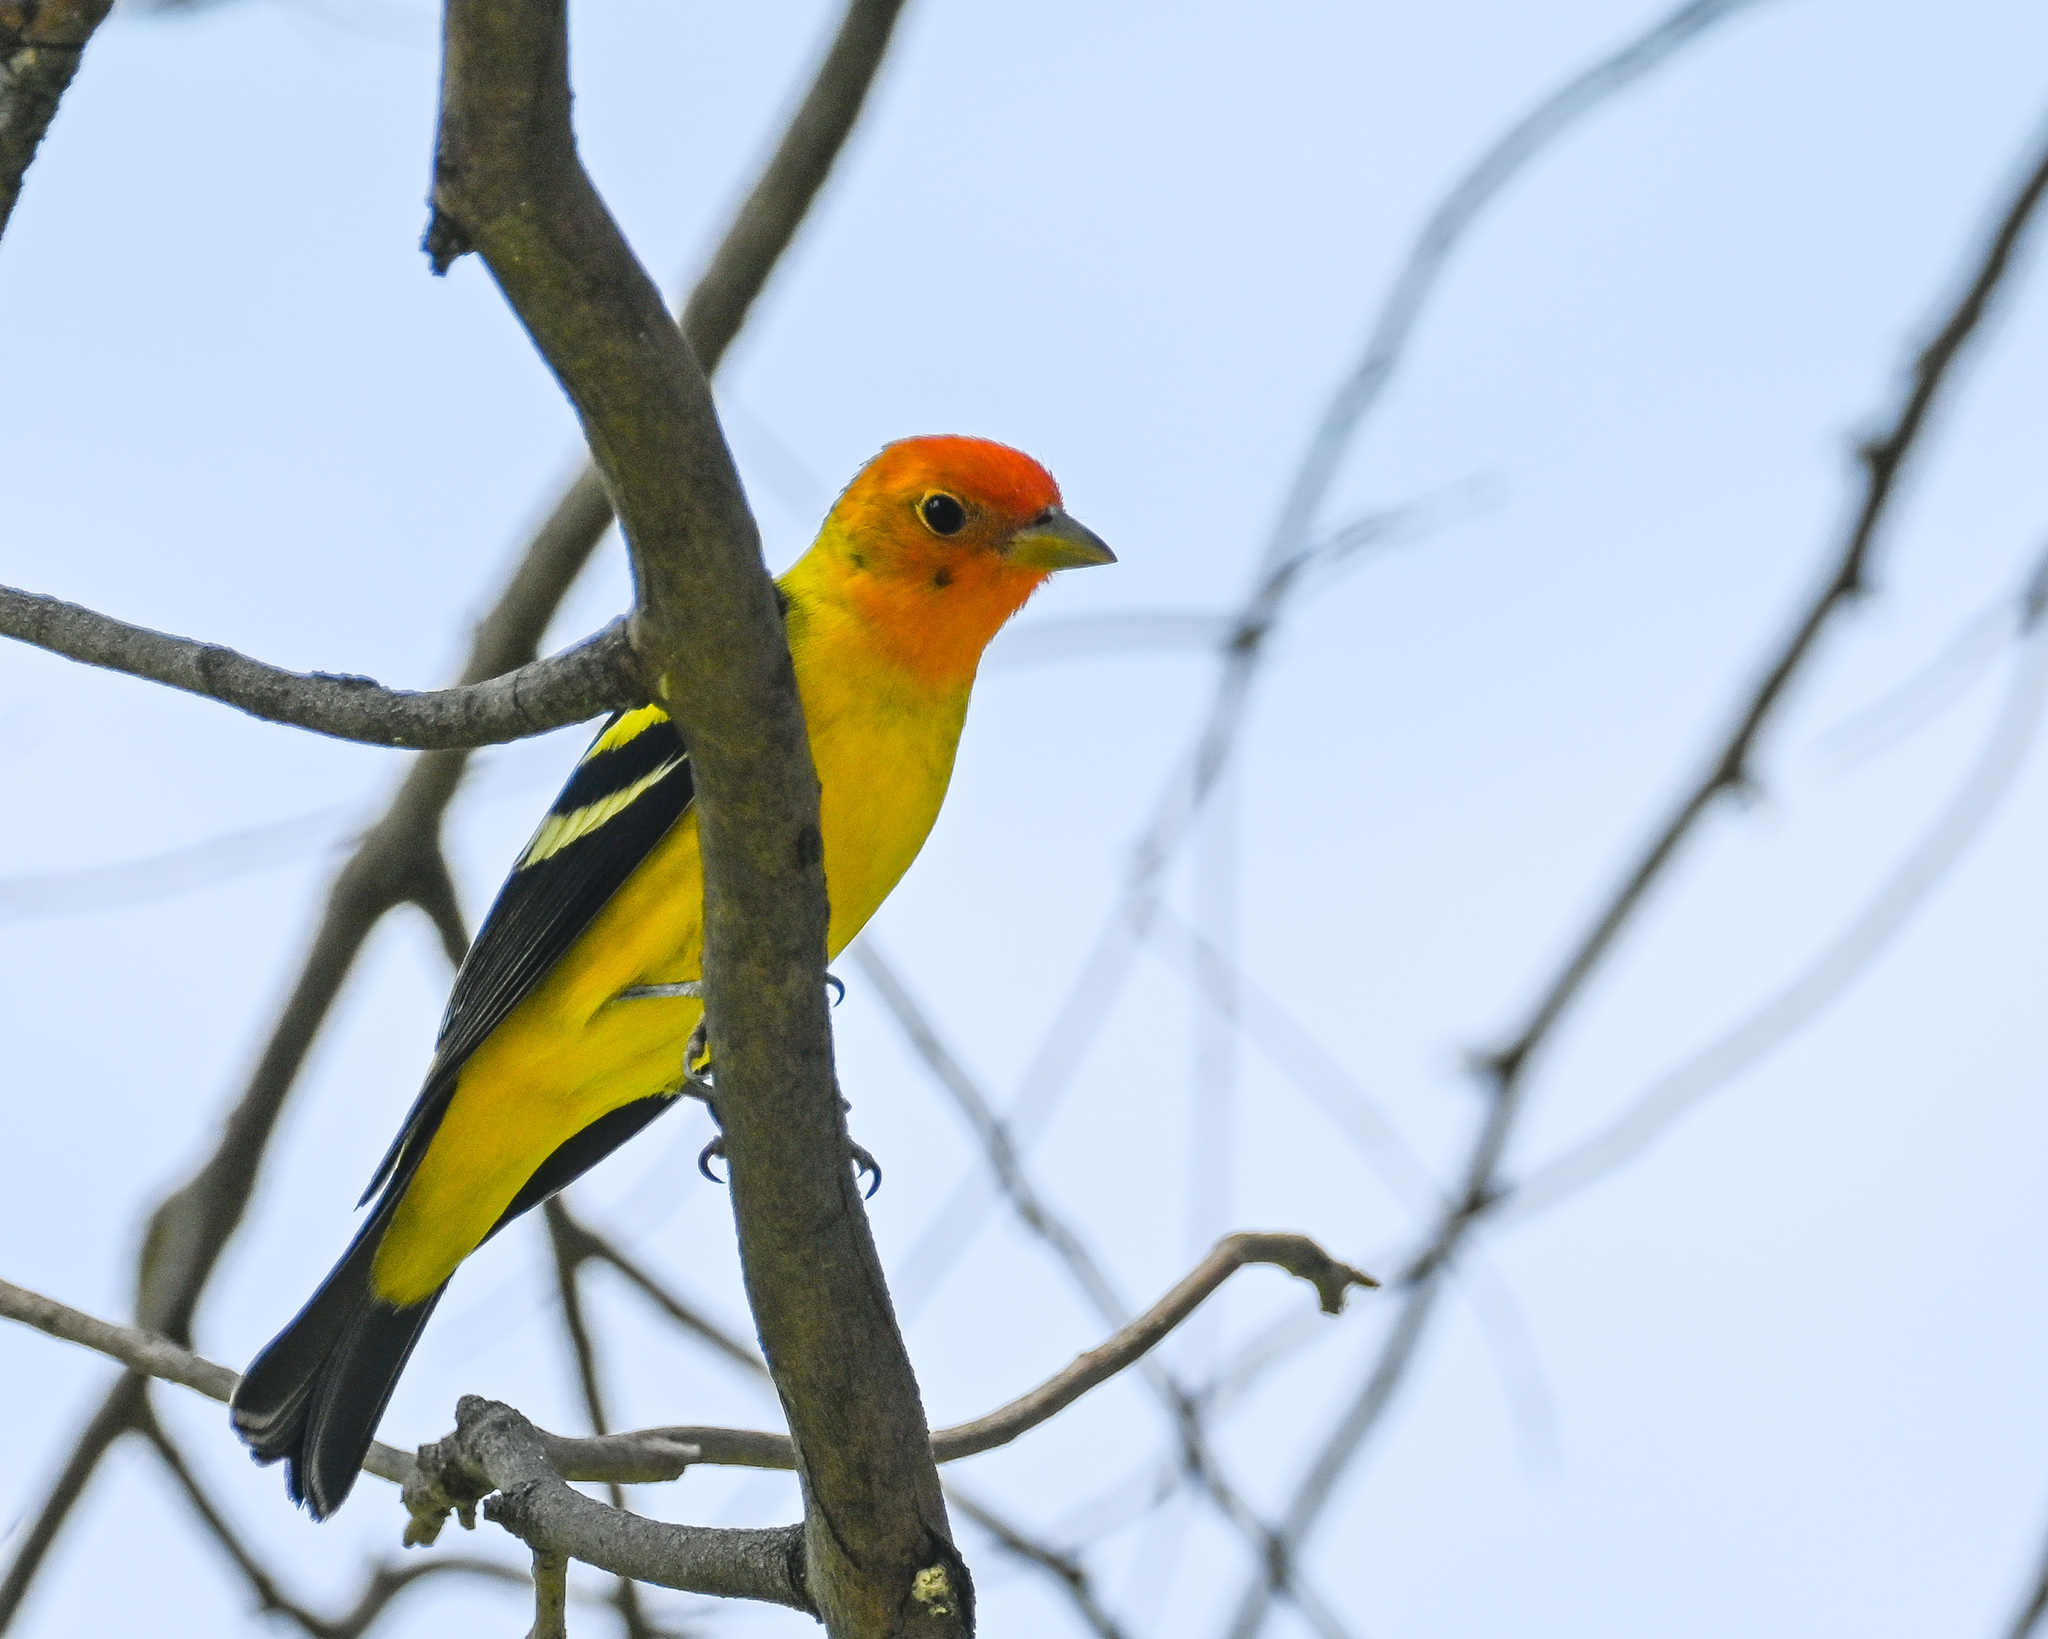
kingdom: Animalia
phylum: Chordata
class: Aves
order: Passeriformes
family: Cardinalidae
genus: Piranga
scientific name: Piranga ludoviciana
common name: Western tanager
